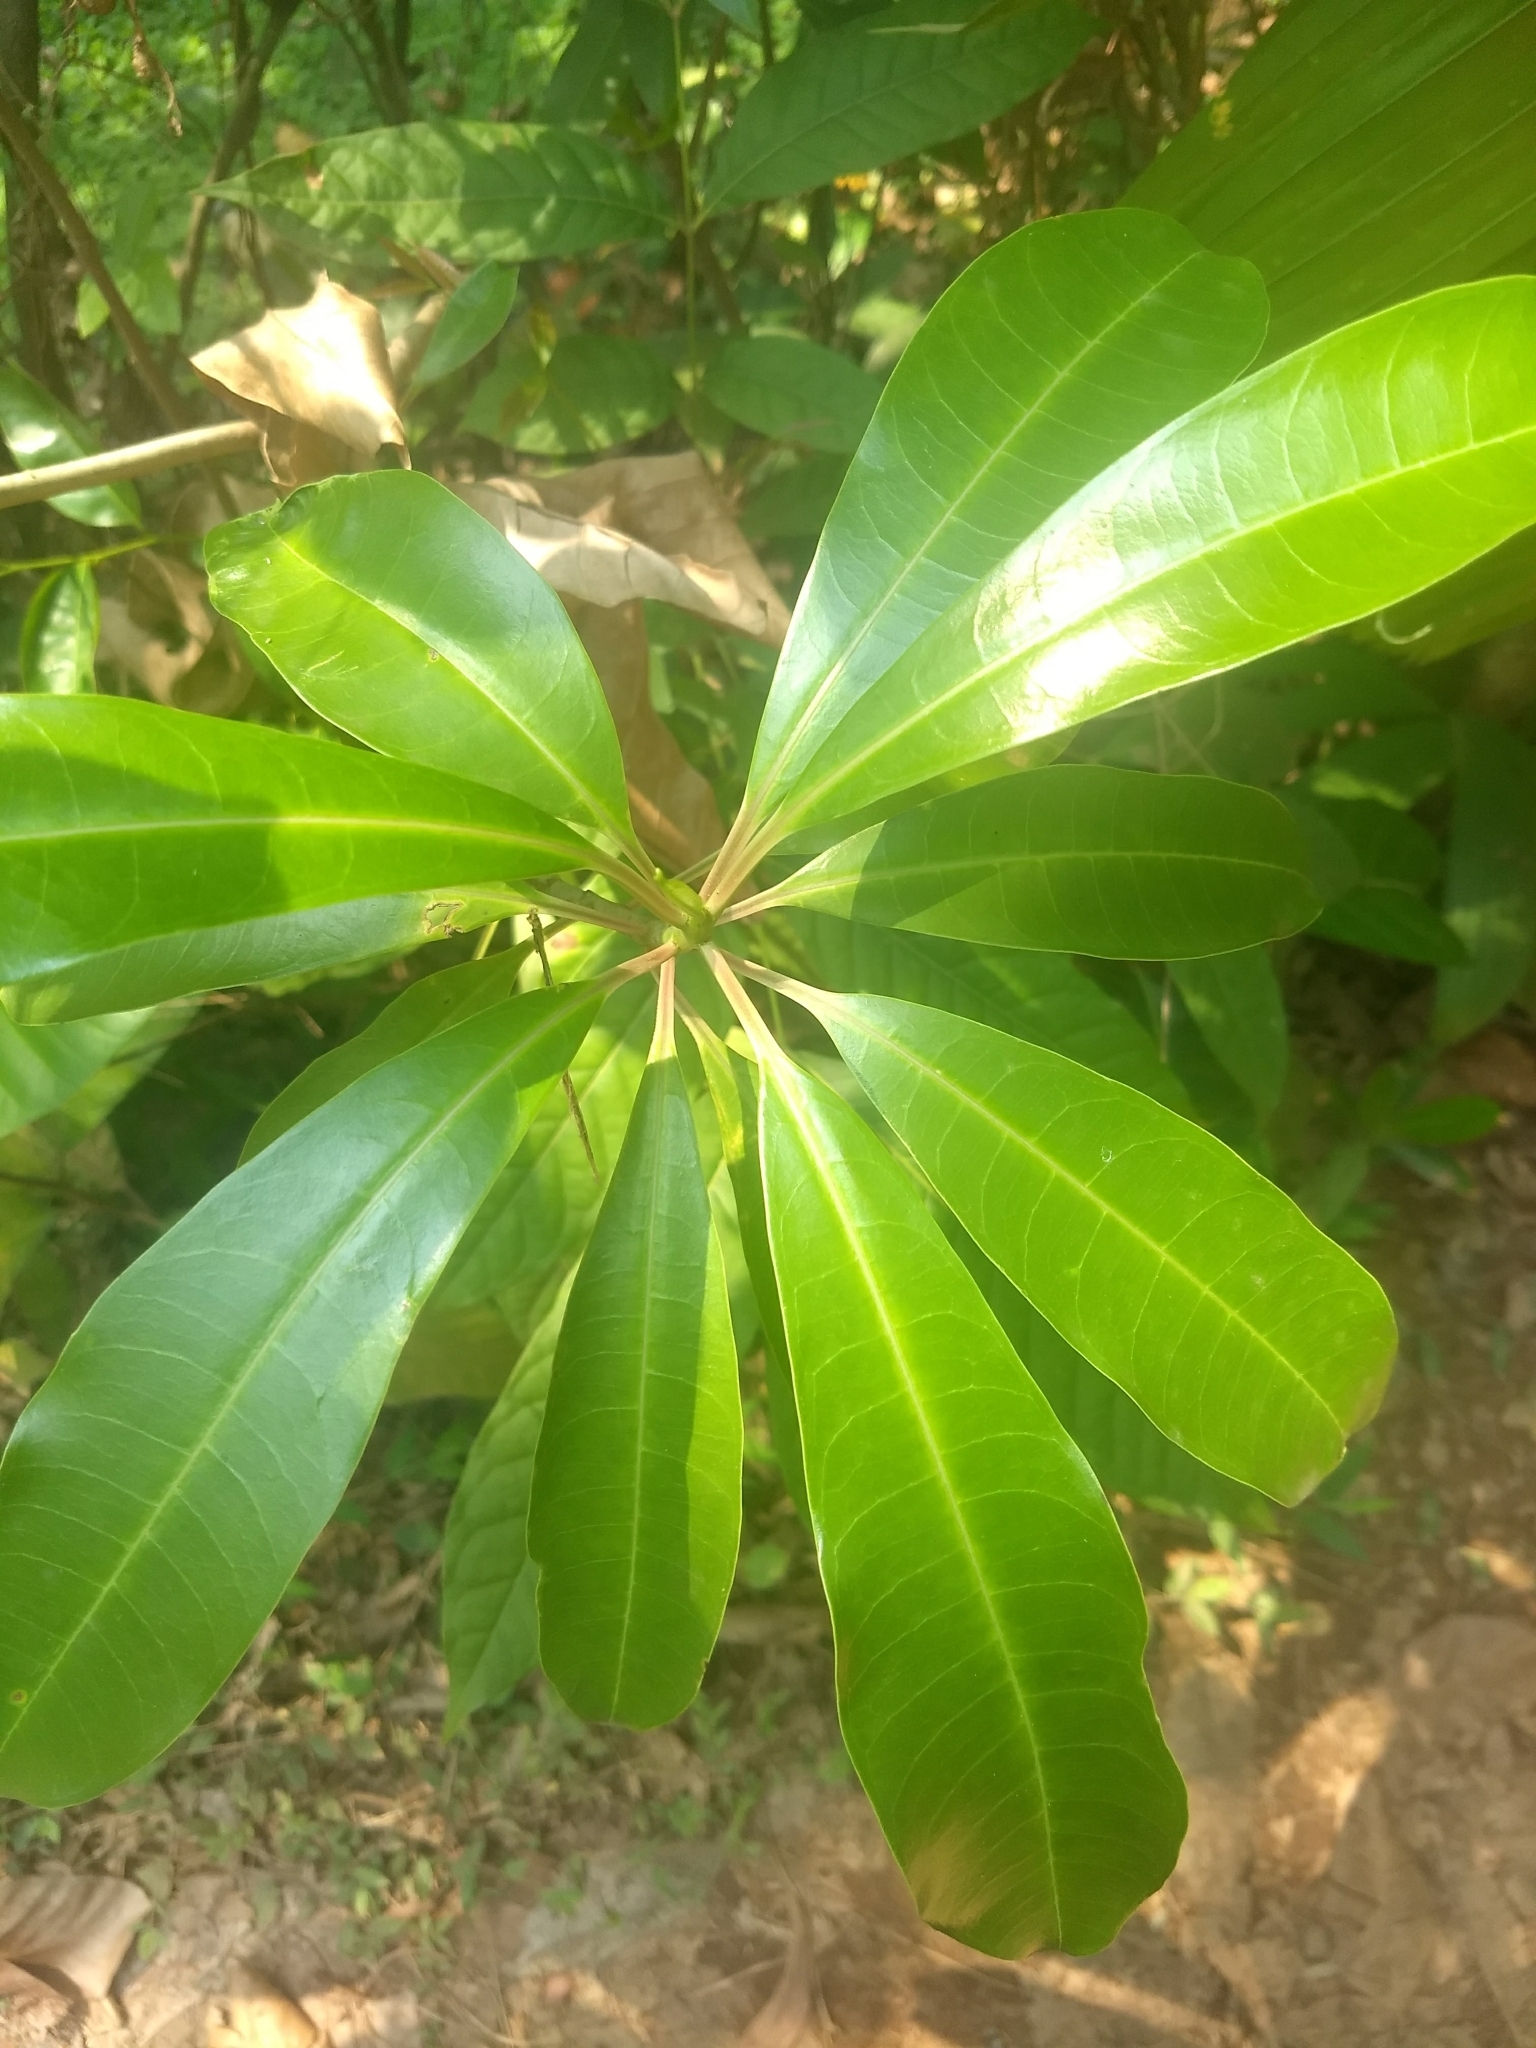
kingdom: Plantae
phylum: Tracheophyta
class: Magnoliopsida
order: Gentianales
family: Apocynaceae
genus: Cerbera
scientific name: Cerbera odollam
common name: Pong-pong
